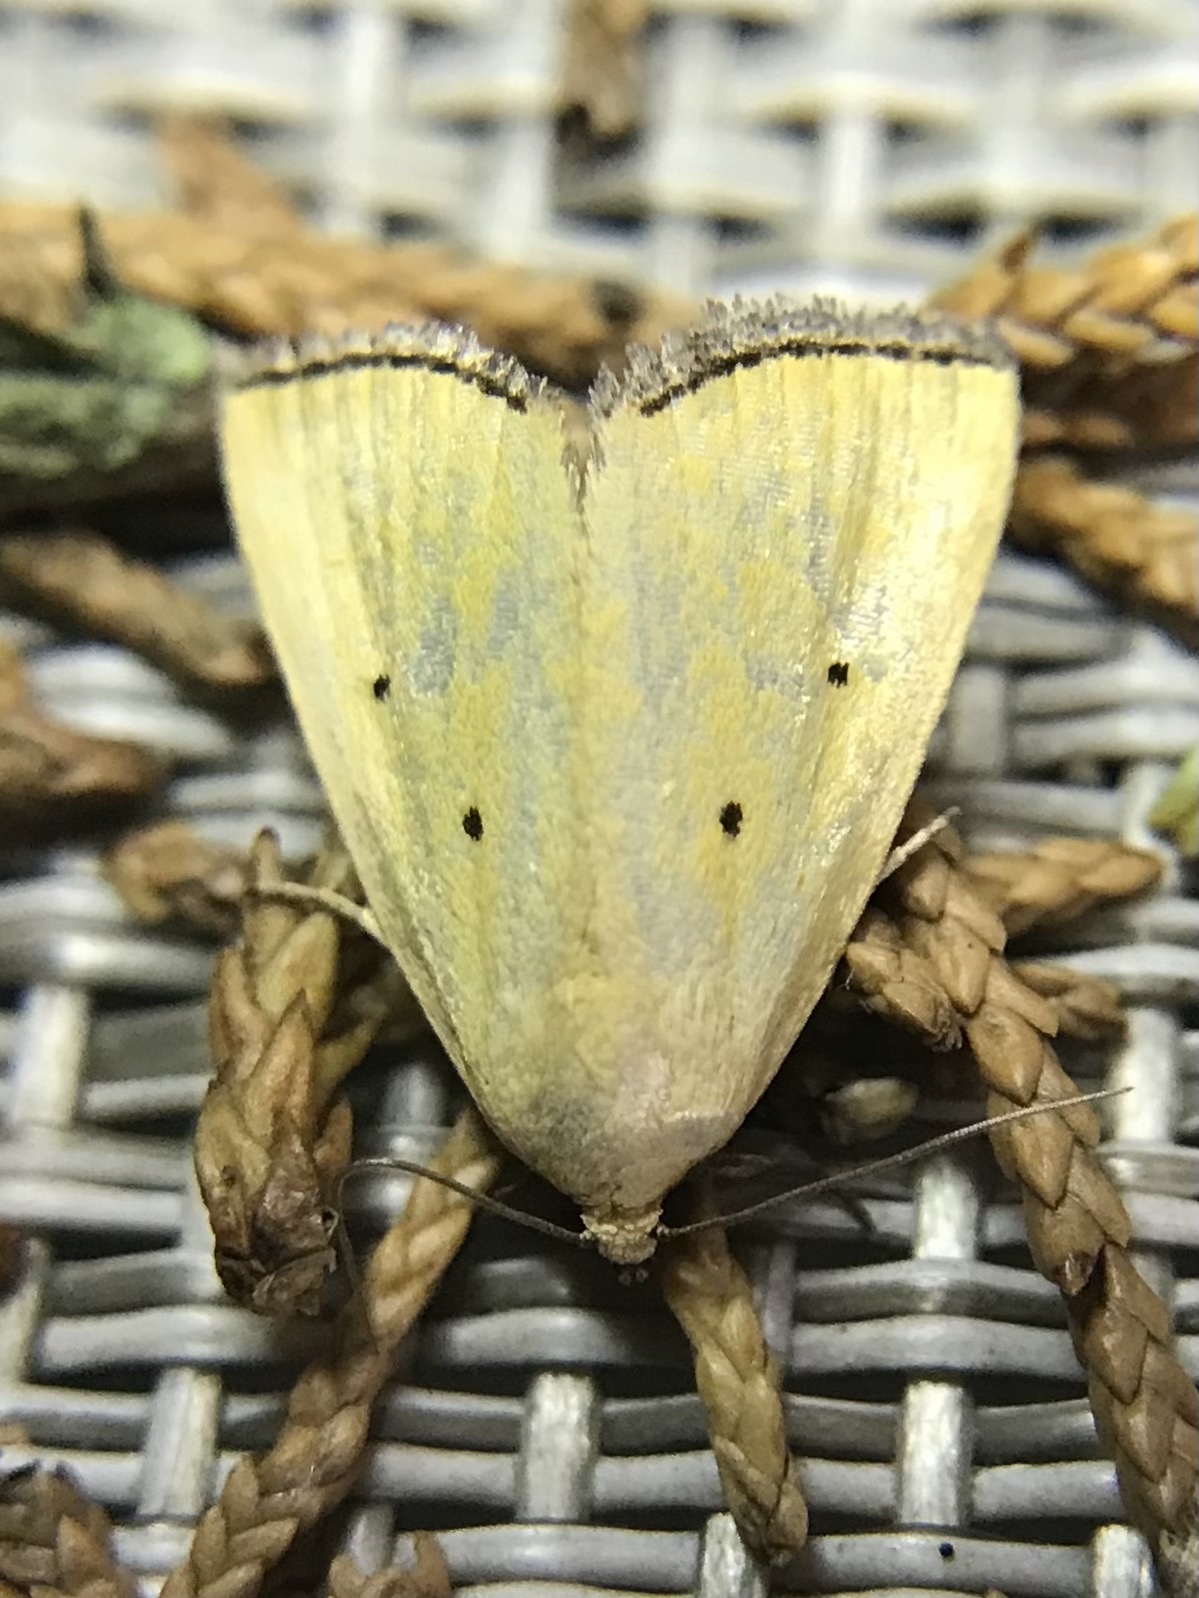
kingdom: Animalia
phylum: Arthropoda
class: Insecta
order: Lepidoptera
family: Noctuidae
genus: Marimatha
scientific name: Marimatha nigrofimbria
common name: Black-bordered lemon moth
